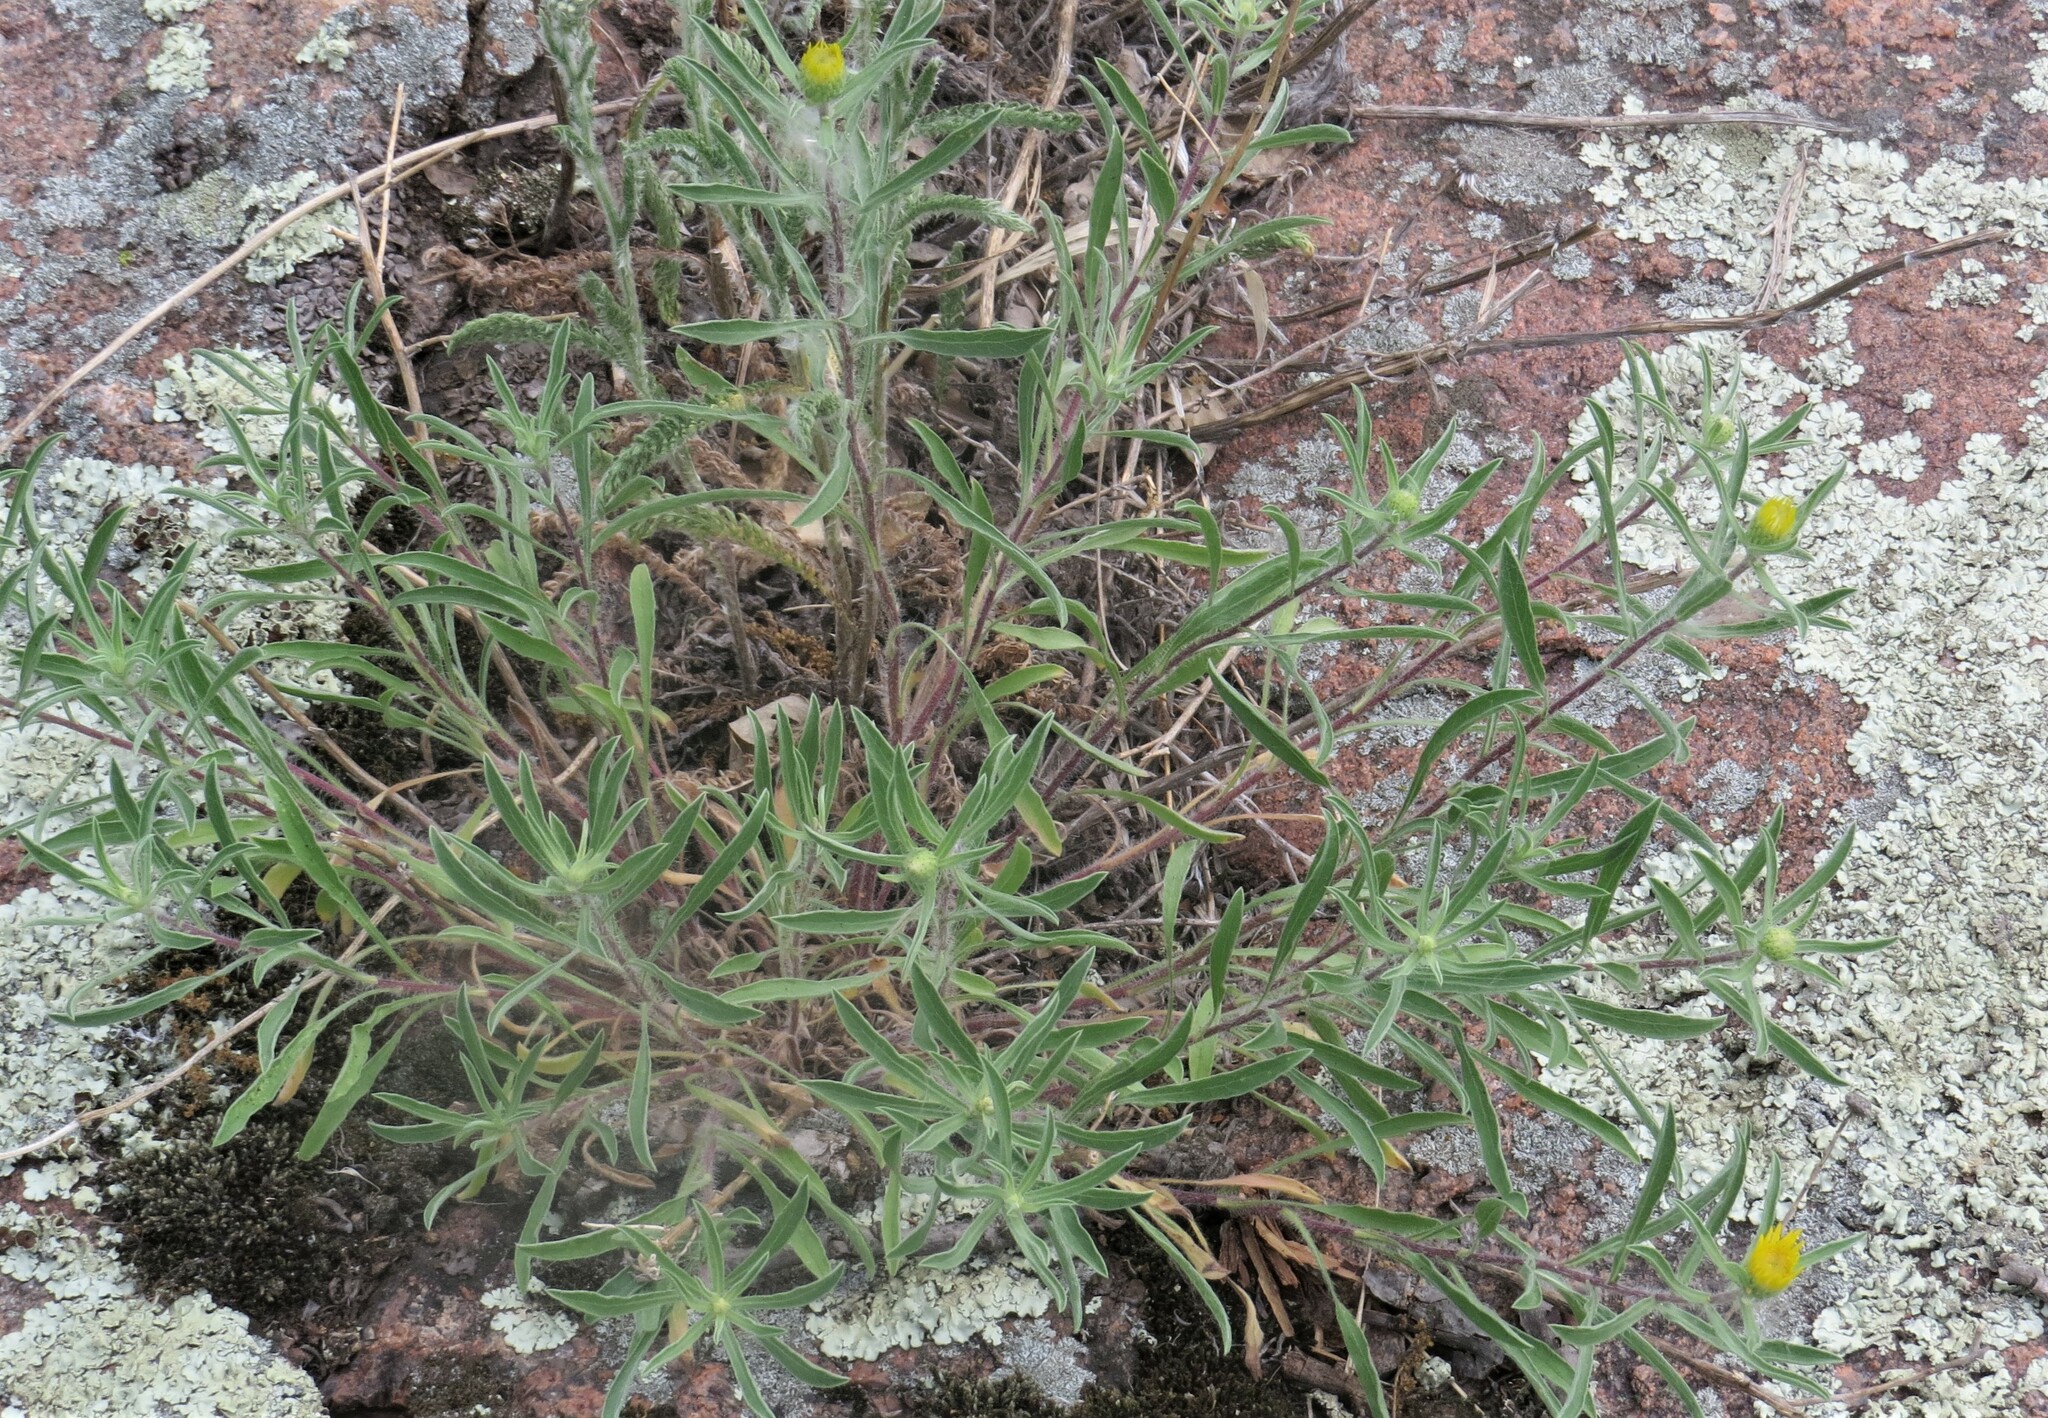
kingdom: Plantae
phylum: Tracheophyta
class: Magnoliopsida
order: Asterales
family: Asteraceae
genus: Heterotheca
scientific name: Heterotheca villosa
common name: Hairy false goldenaster
